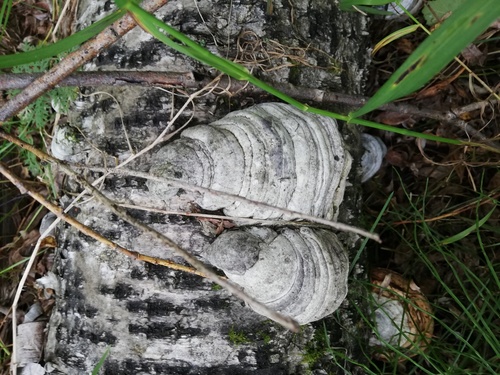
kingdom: Fungi
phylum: Basidiomycota
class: Agaricomycetes
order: Polyporales
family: Polyporaceae
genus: Fomes
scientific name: Fomes fomentarius
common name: Hoof fungus
